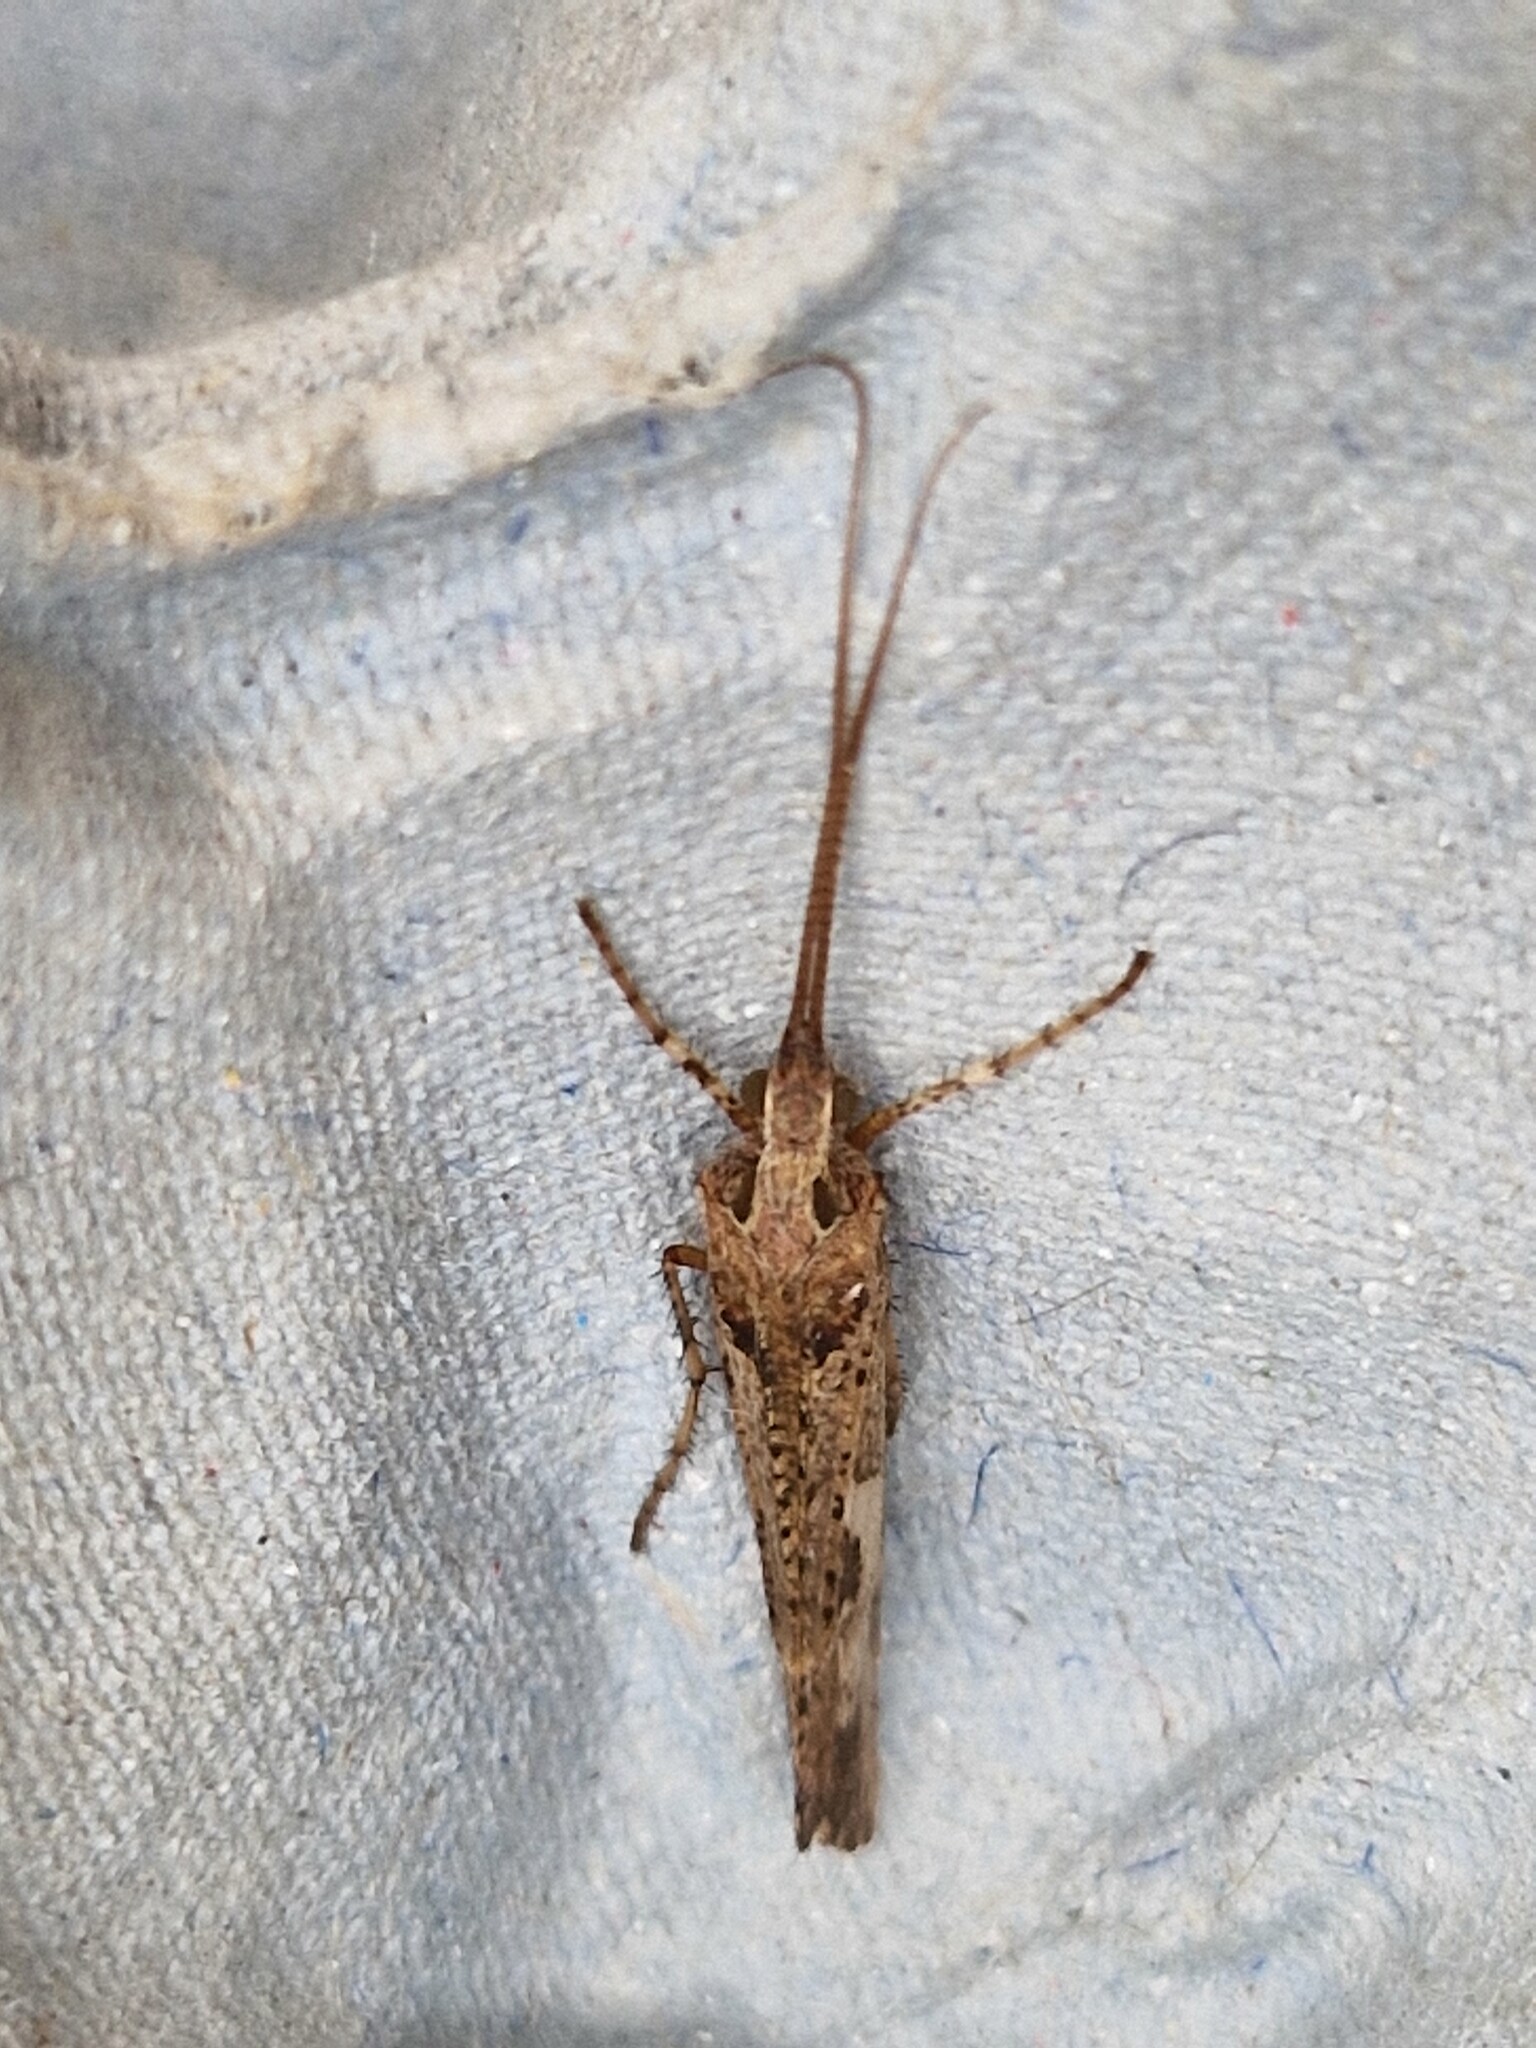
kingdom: Animalia
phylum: Arthropoda
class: Insecta
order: Trichoptera
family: Limnephilidae
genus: Glyphotaelius
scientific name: Glyphotaelius pellucidus
